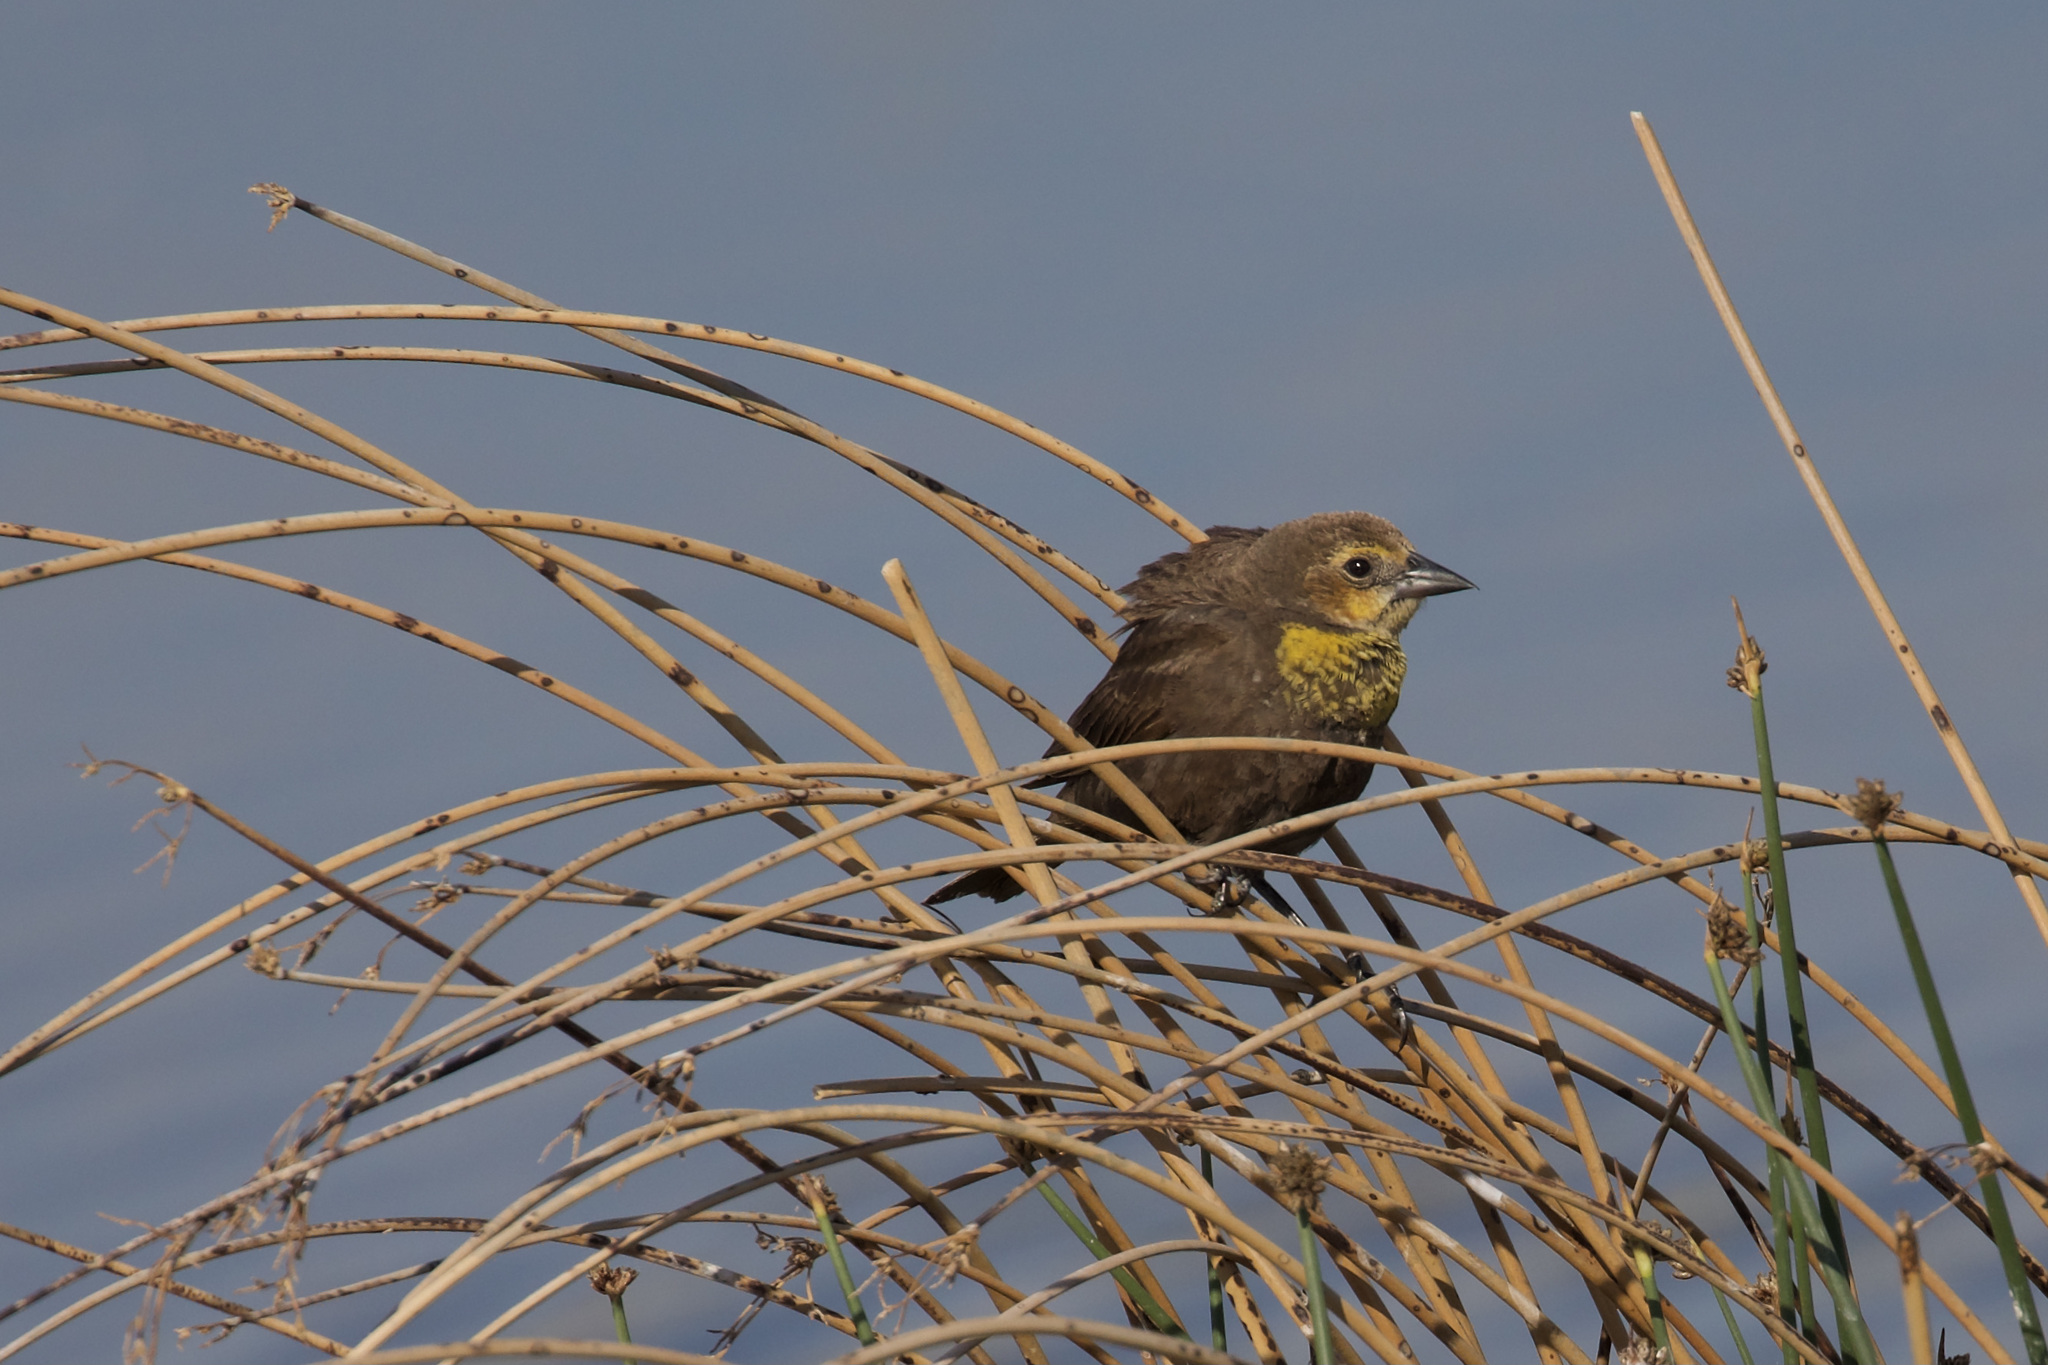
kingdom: Animalia
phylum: Chordata
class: Aves
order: Passeriformes
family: Icteridae
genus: Xanthocephalus
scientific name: Xanthocephalus xanthocephalus
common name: Yellow-headed blackbird
